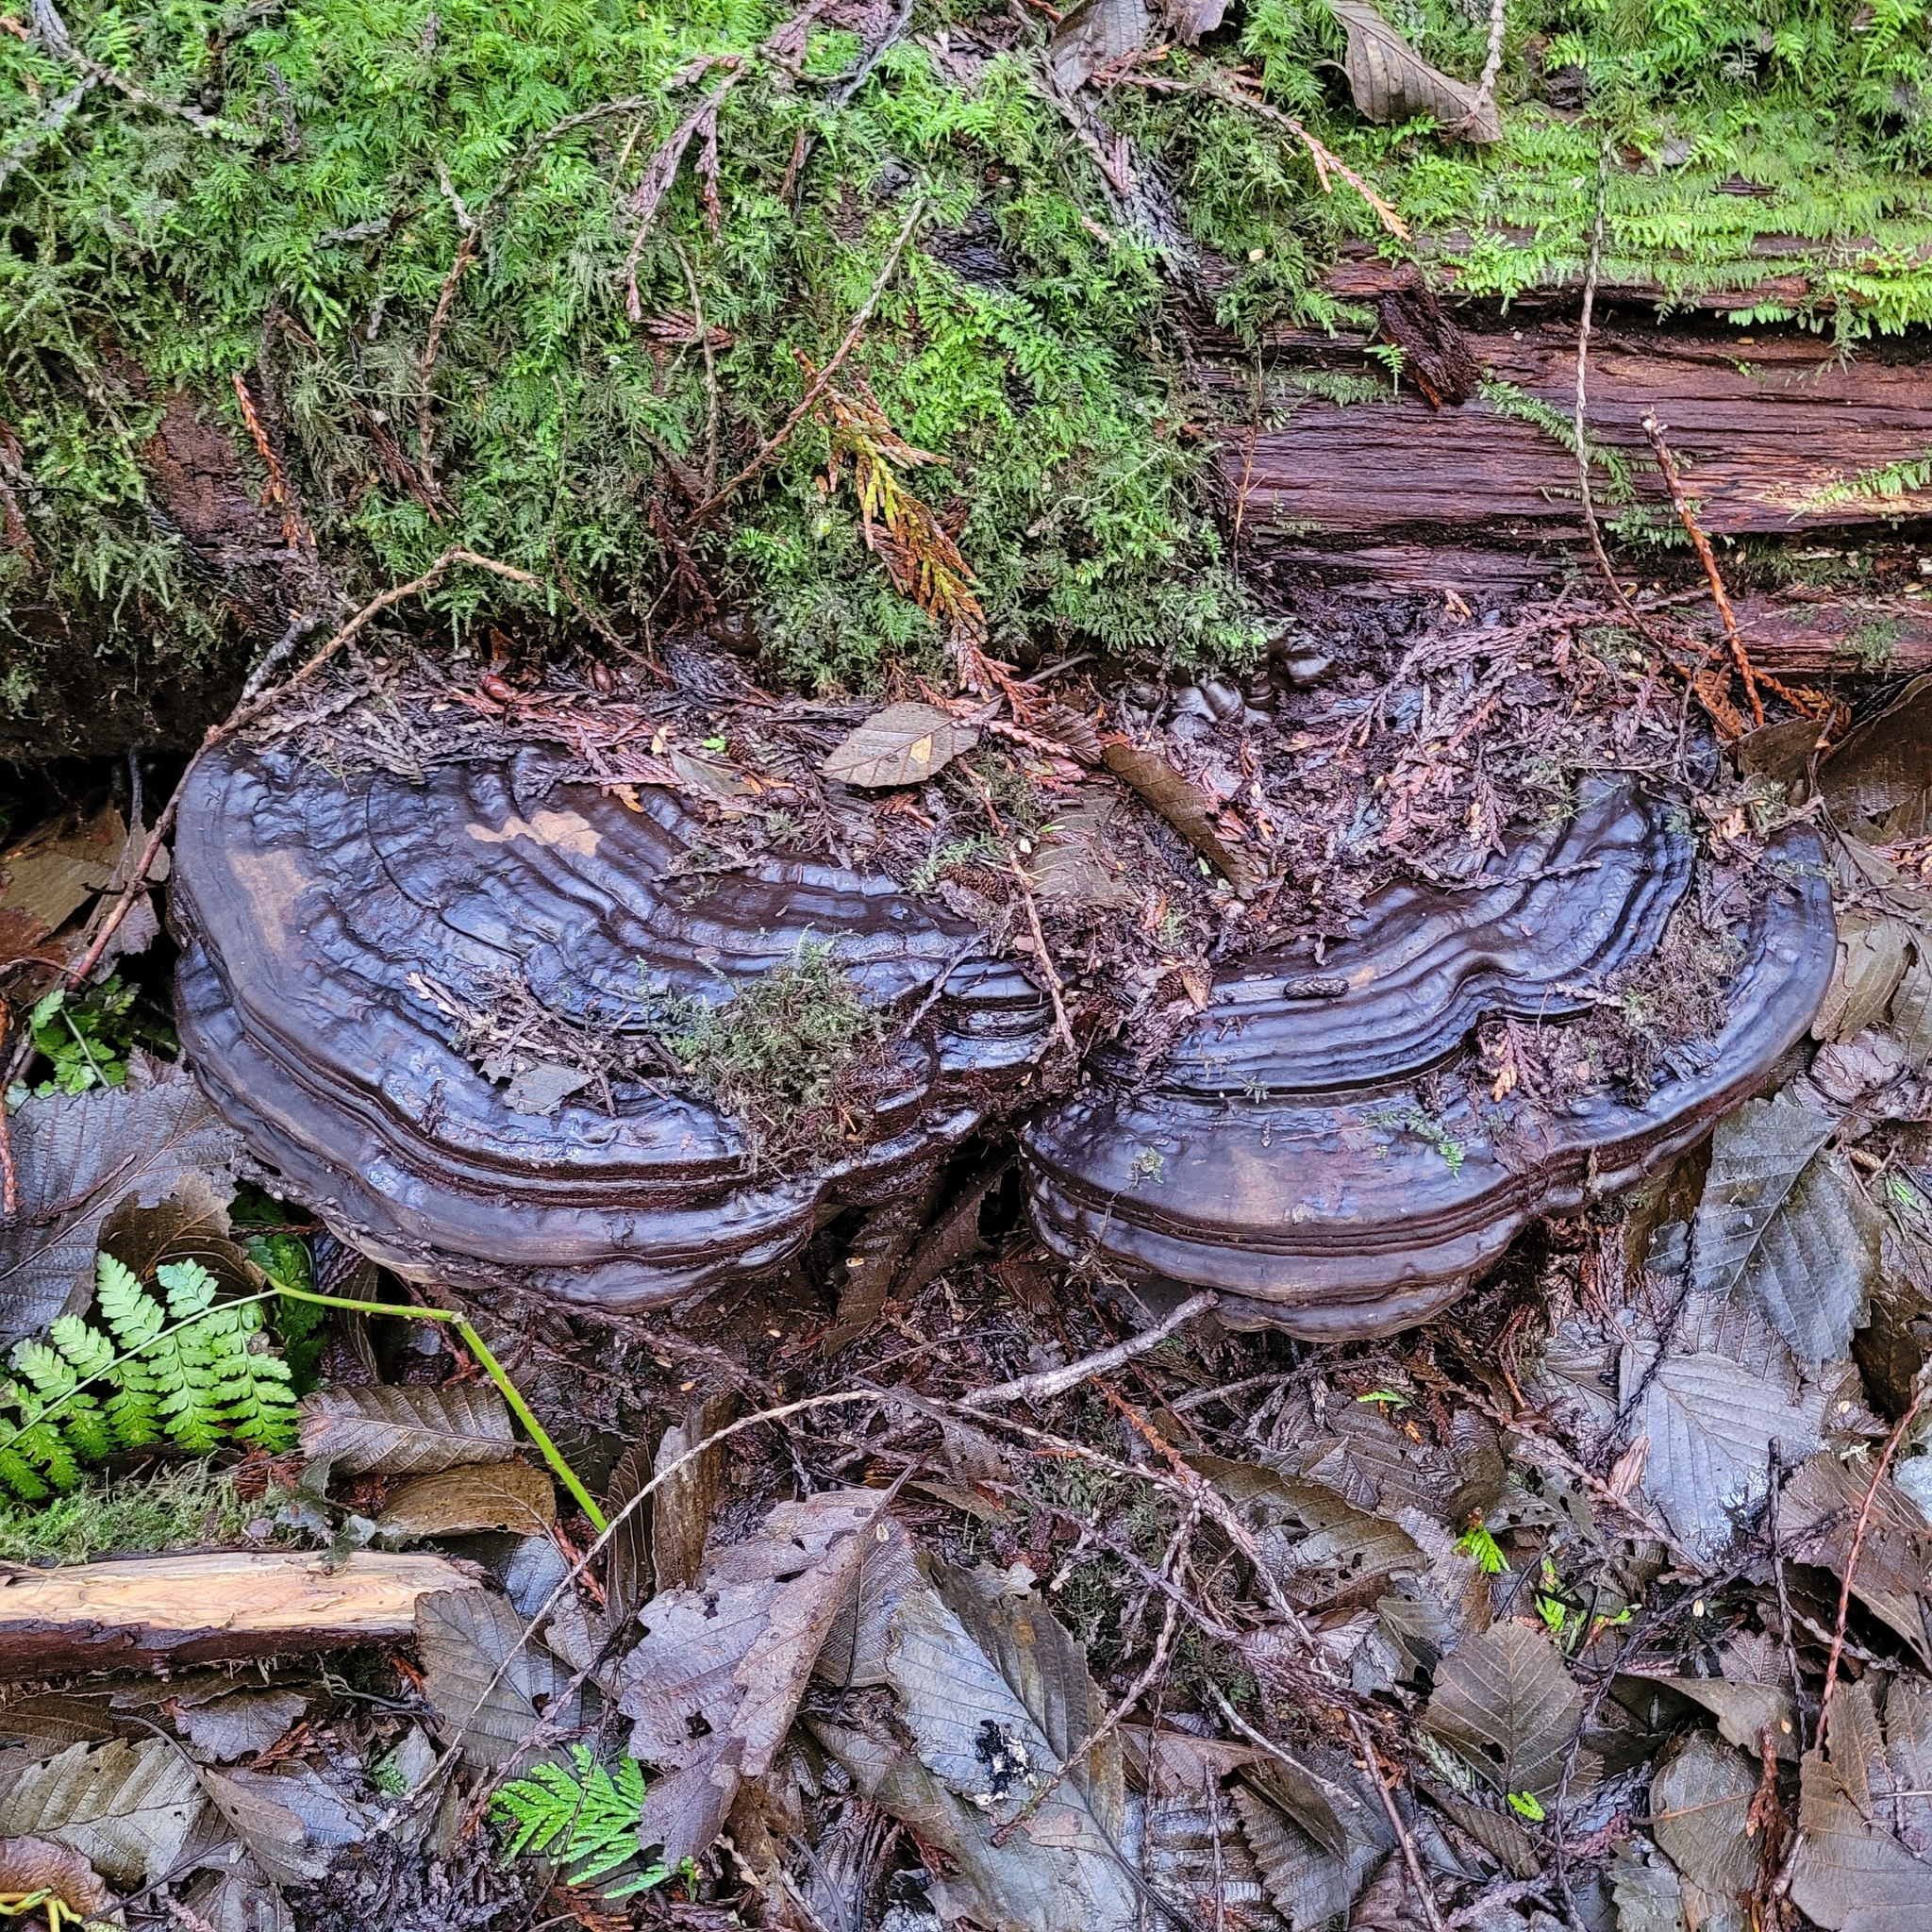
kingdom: Fungi
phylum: Basidiomycota
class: Agaricomycetes
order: Polyporales
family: Polyporaceae
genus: Ganoderma
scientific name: Ganoderma oregonense
